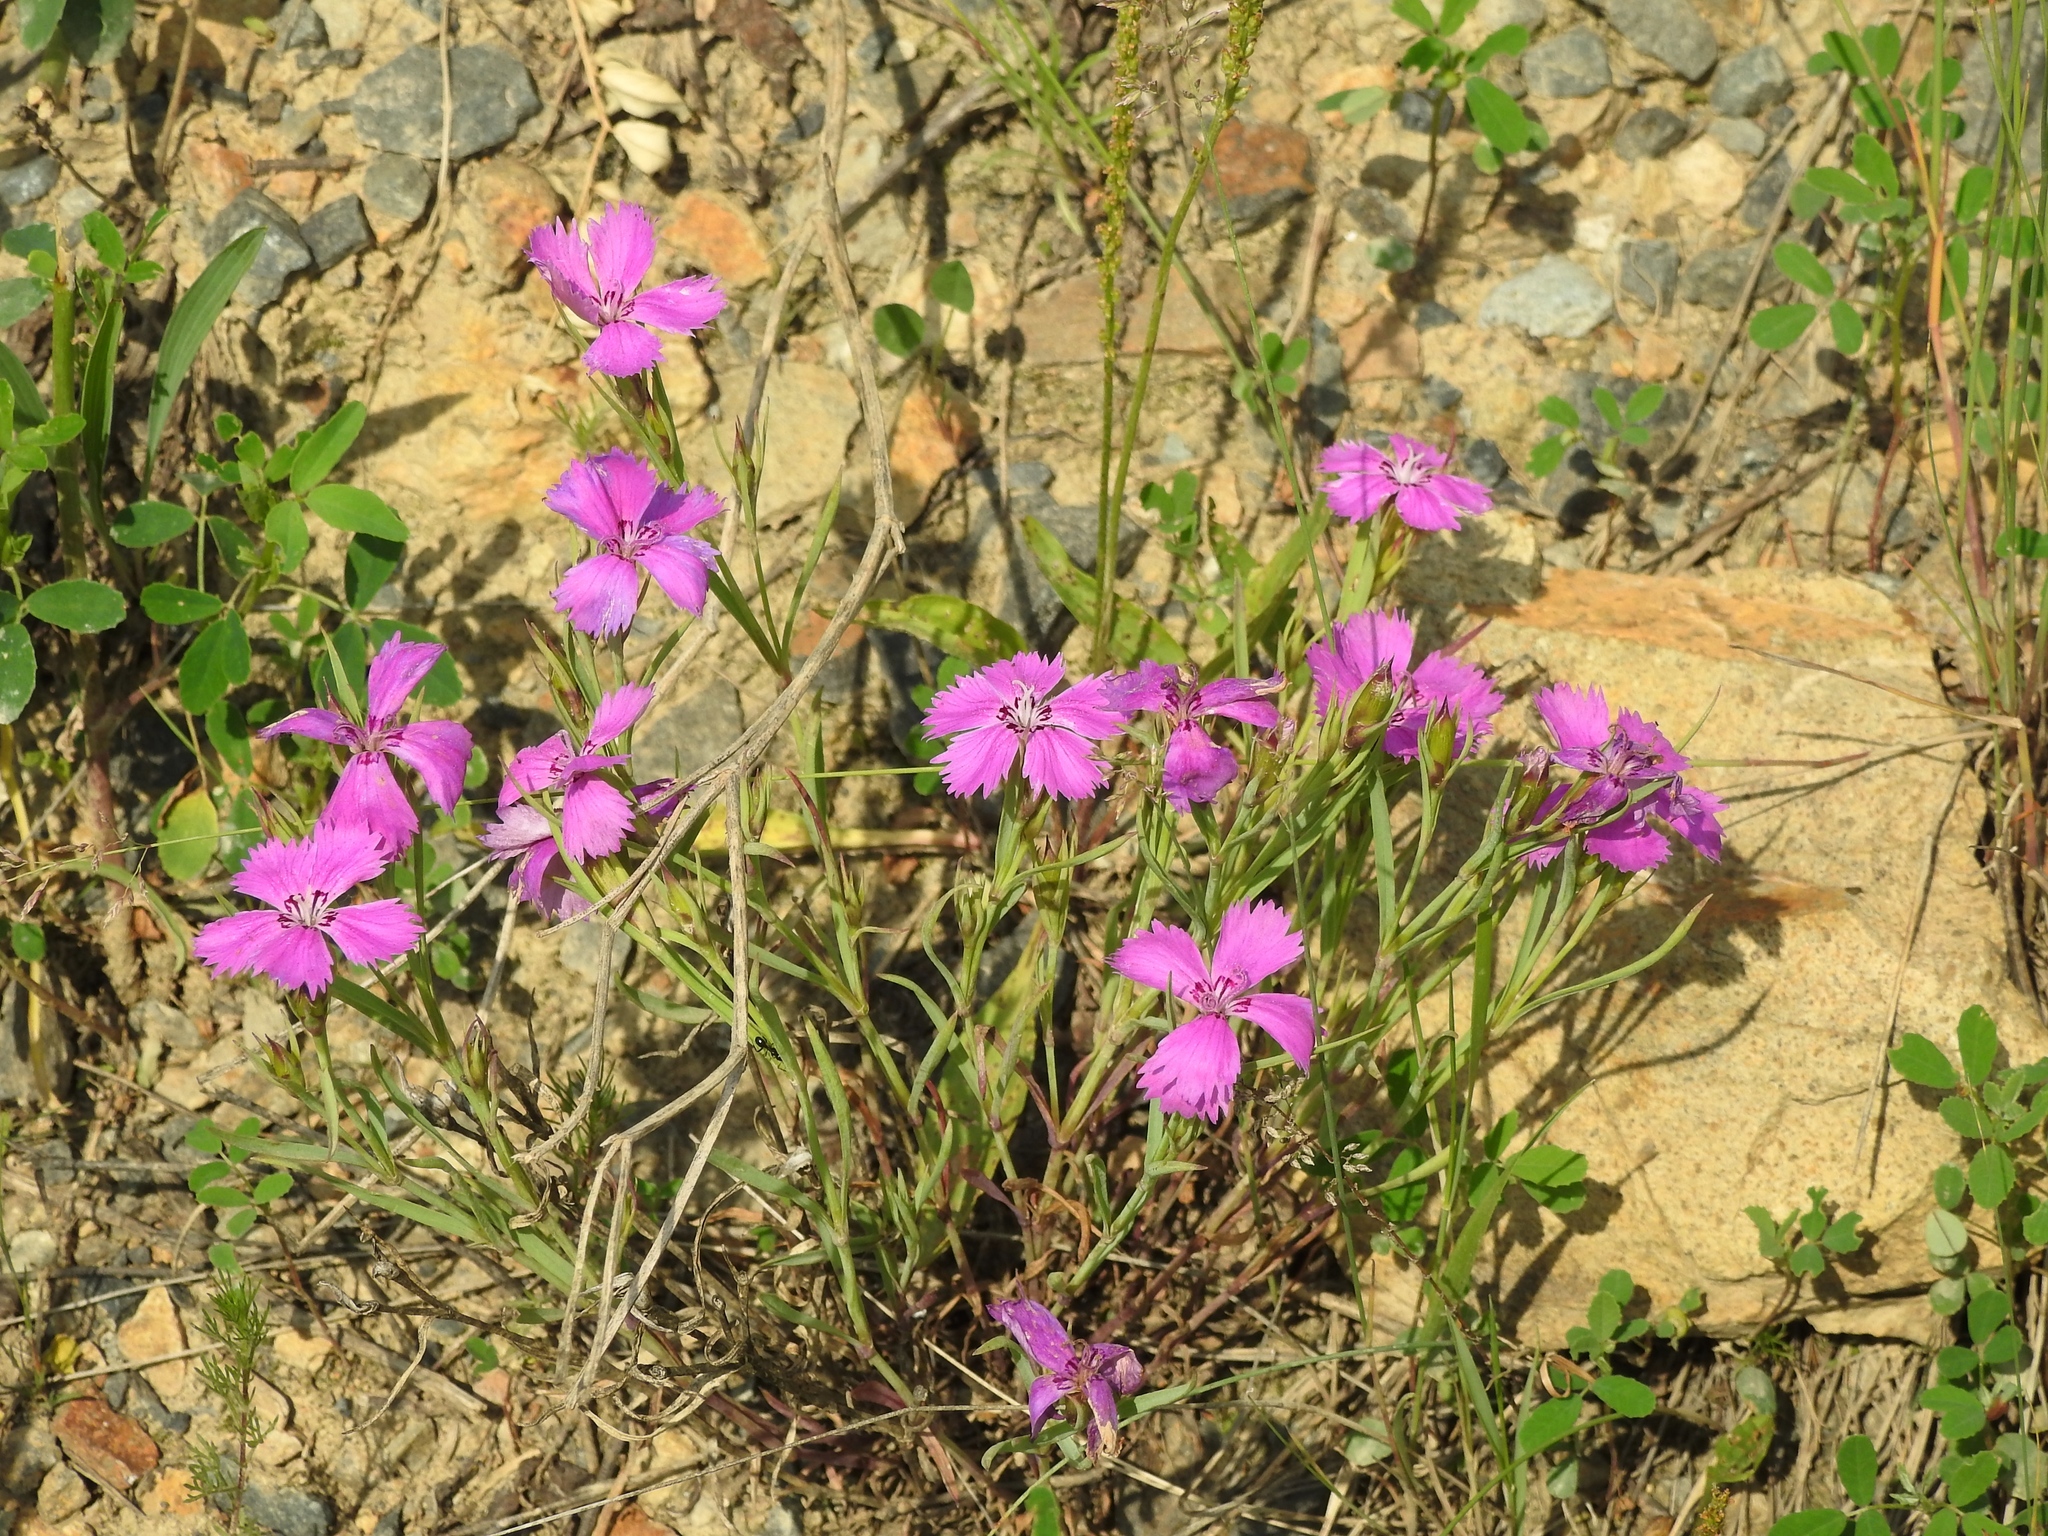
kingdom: Plantae
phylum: Tracheophyta
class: Magnoliopsida
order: Caryophyllales
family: Caryophyllaceae
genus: Dianthus
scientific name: Dianthus chinensis
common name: Rainbow pink
